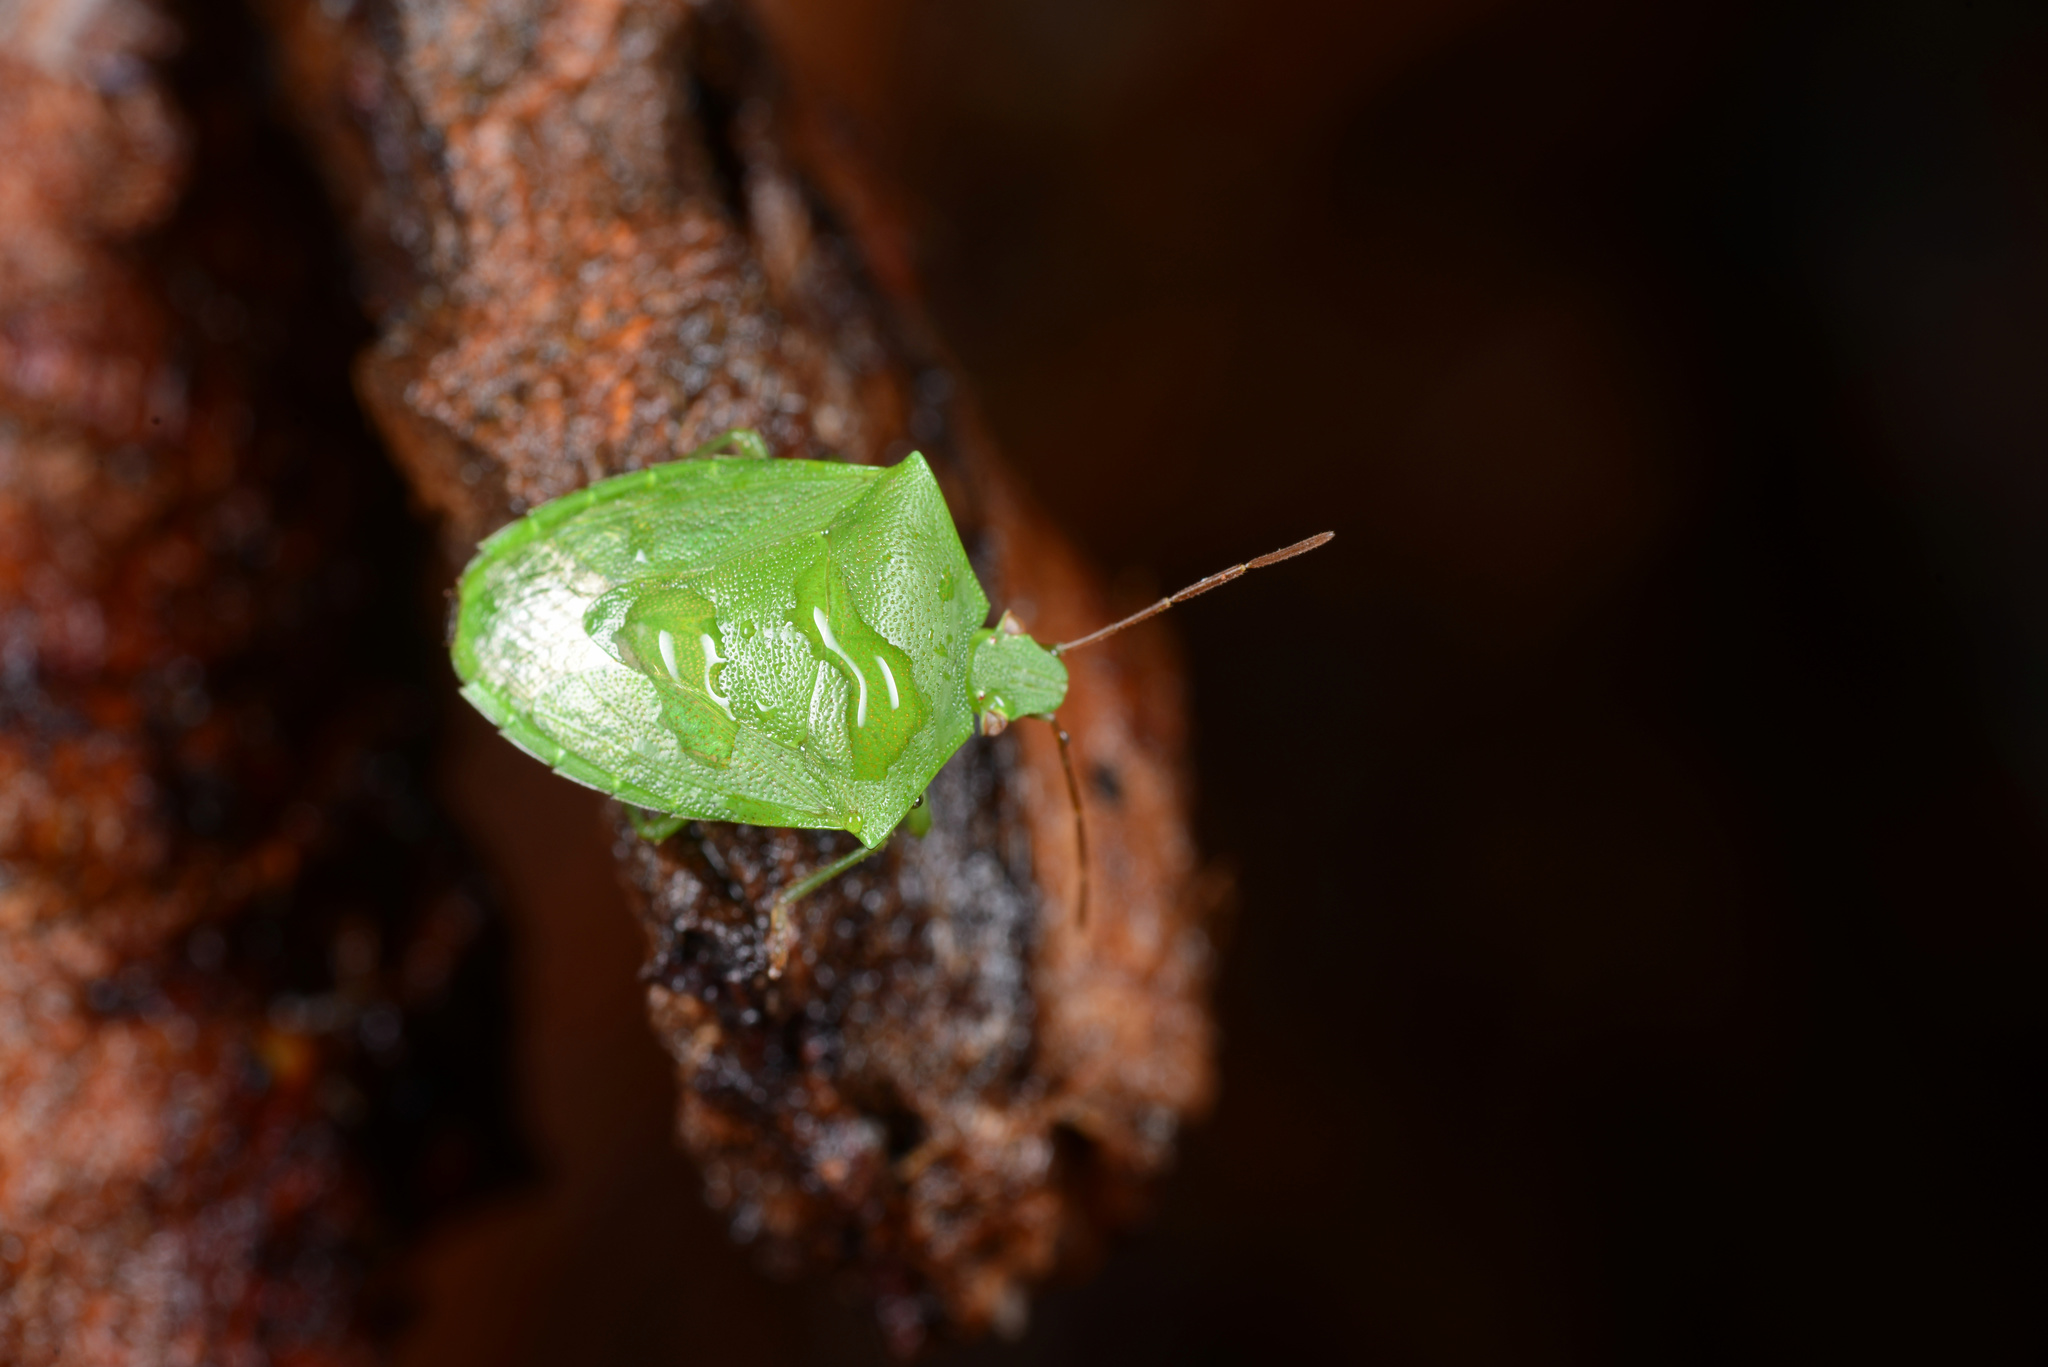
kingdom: Animalia
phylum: Arthropoda
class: Insecta
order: Hemiptera
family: Pentatomidae
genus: Cuspicona
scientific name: Cuspicona simplex
